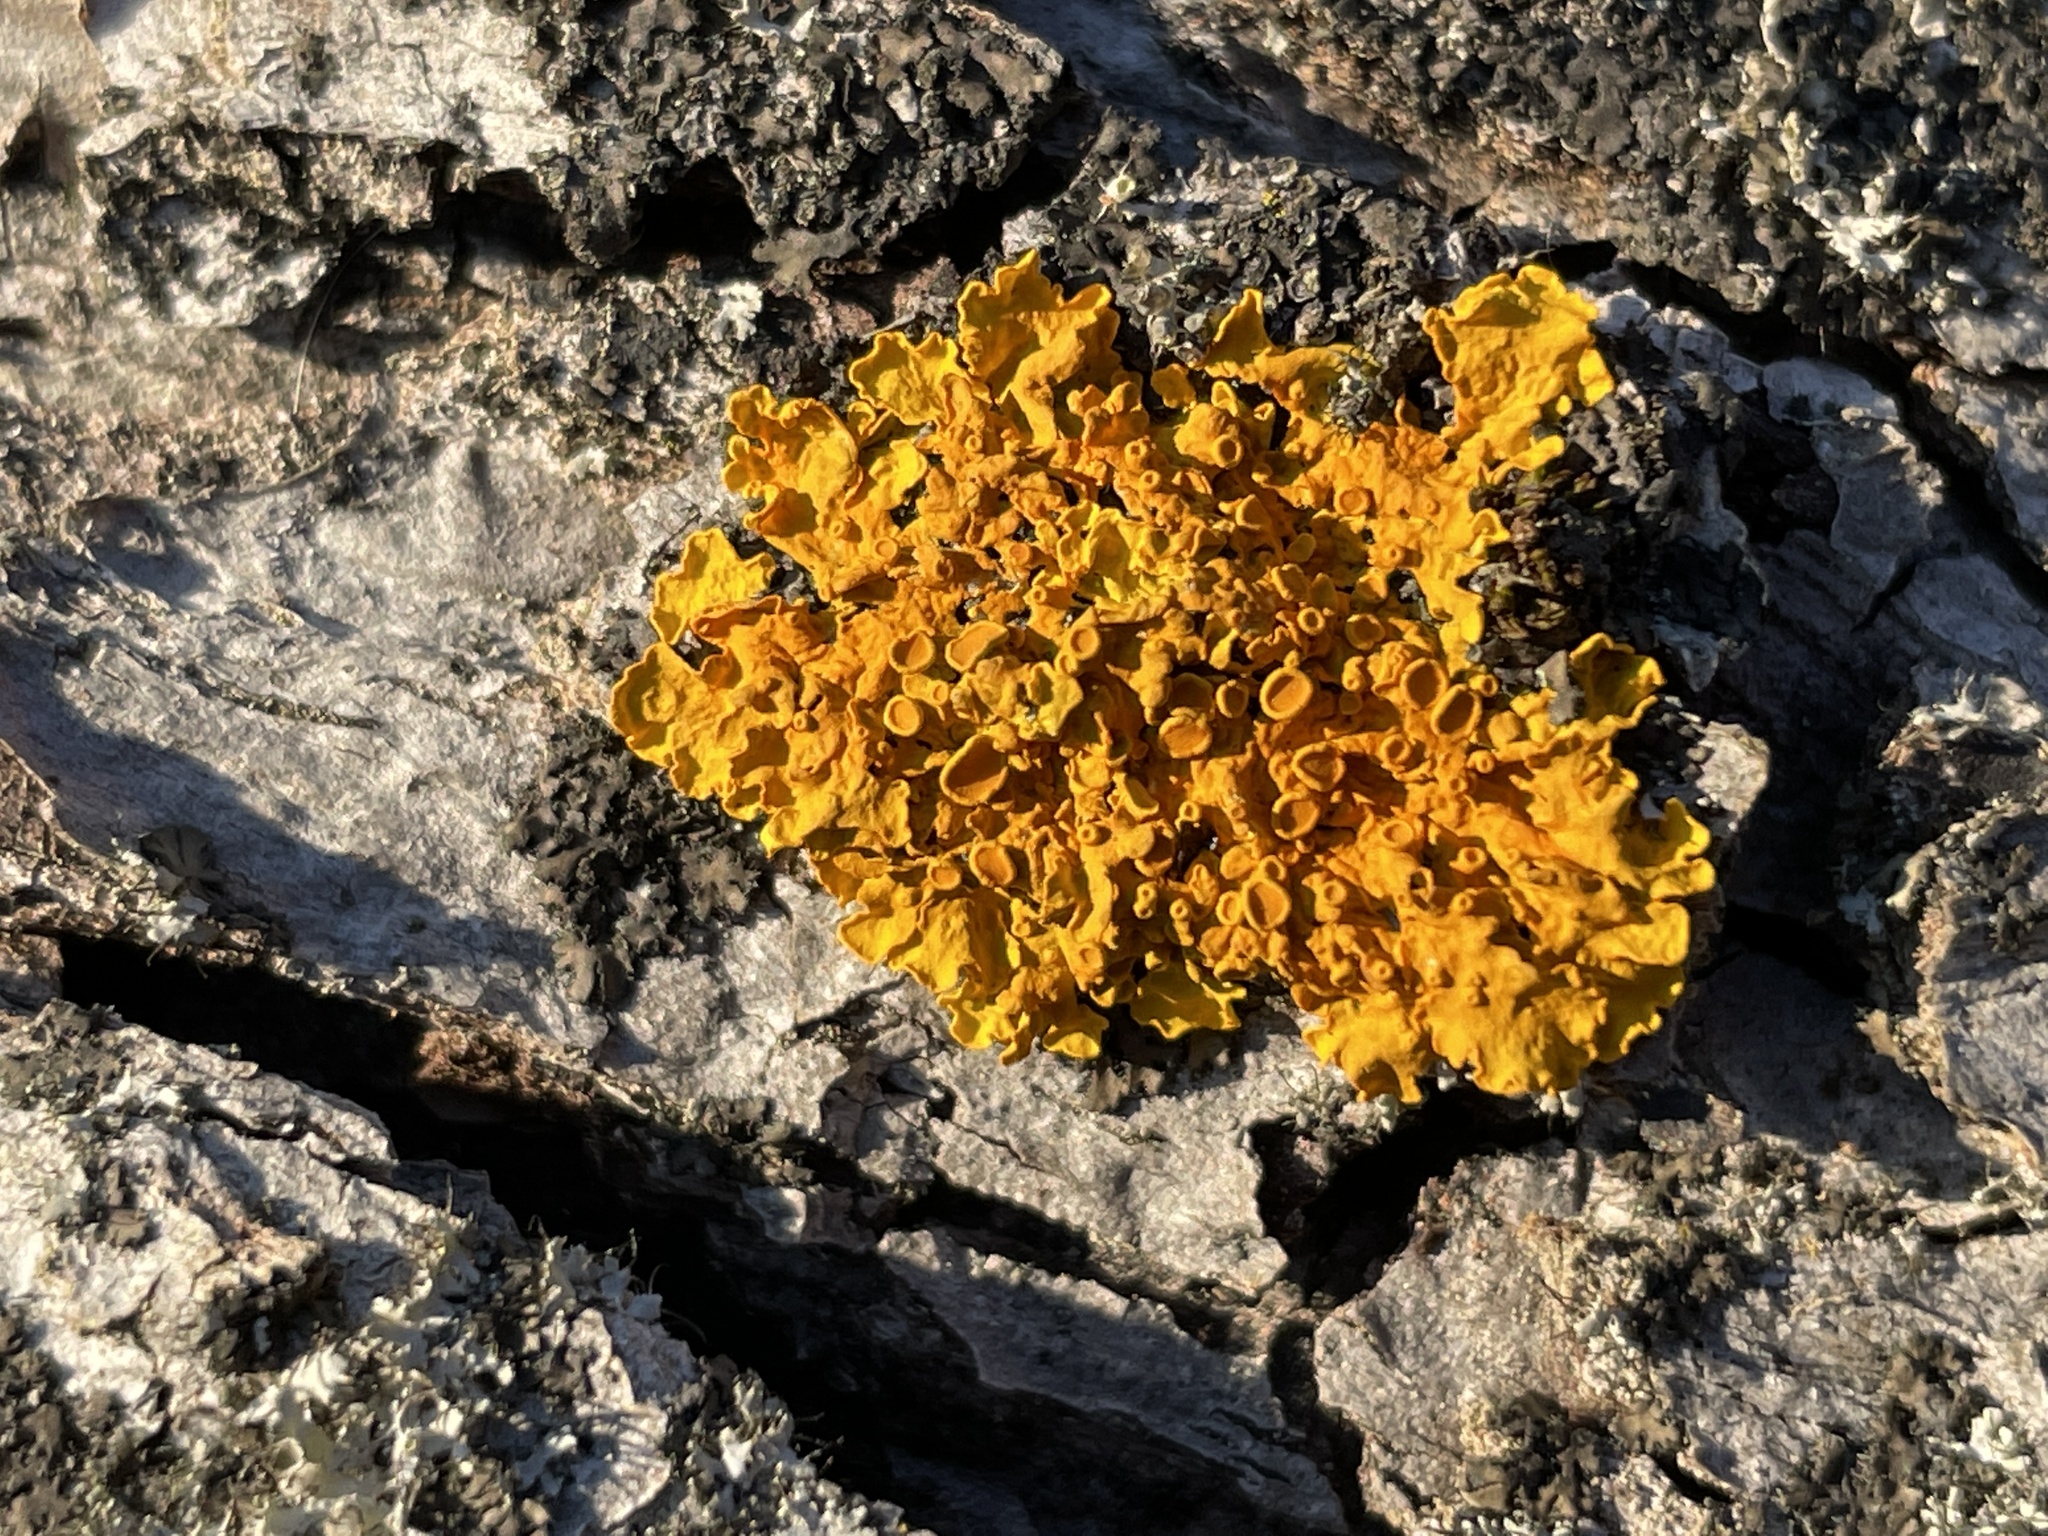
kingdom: Fungi
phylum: Ascomycota
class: Lecanoromycetes
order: Teloschistales
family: Teloschistaceae
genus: Xanthoria
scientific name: Xanthoria parietina
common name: Common orange lichen
